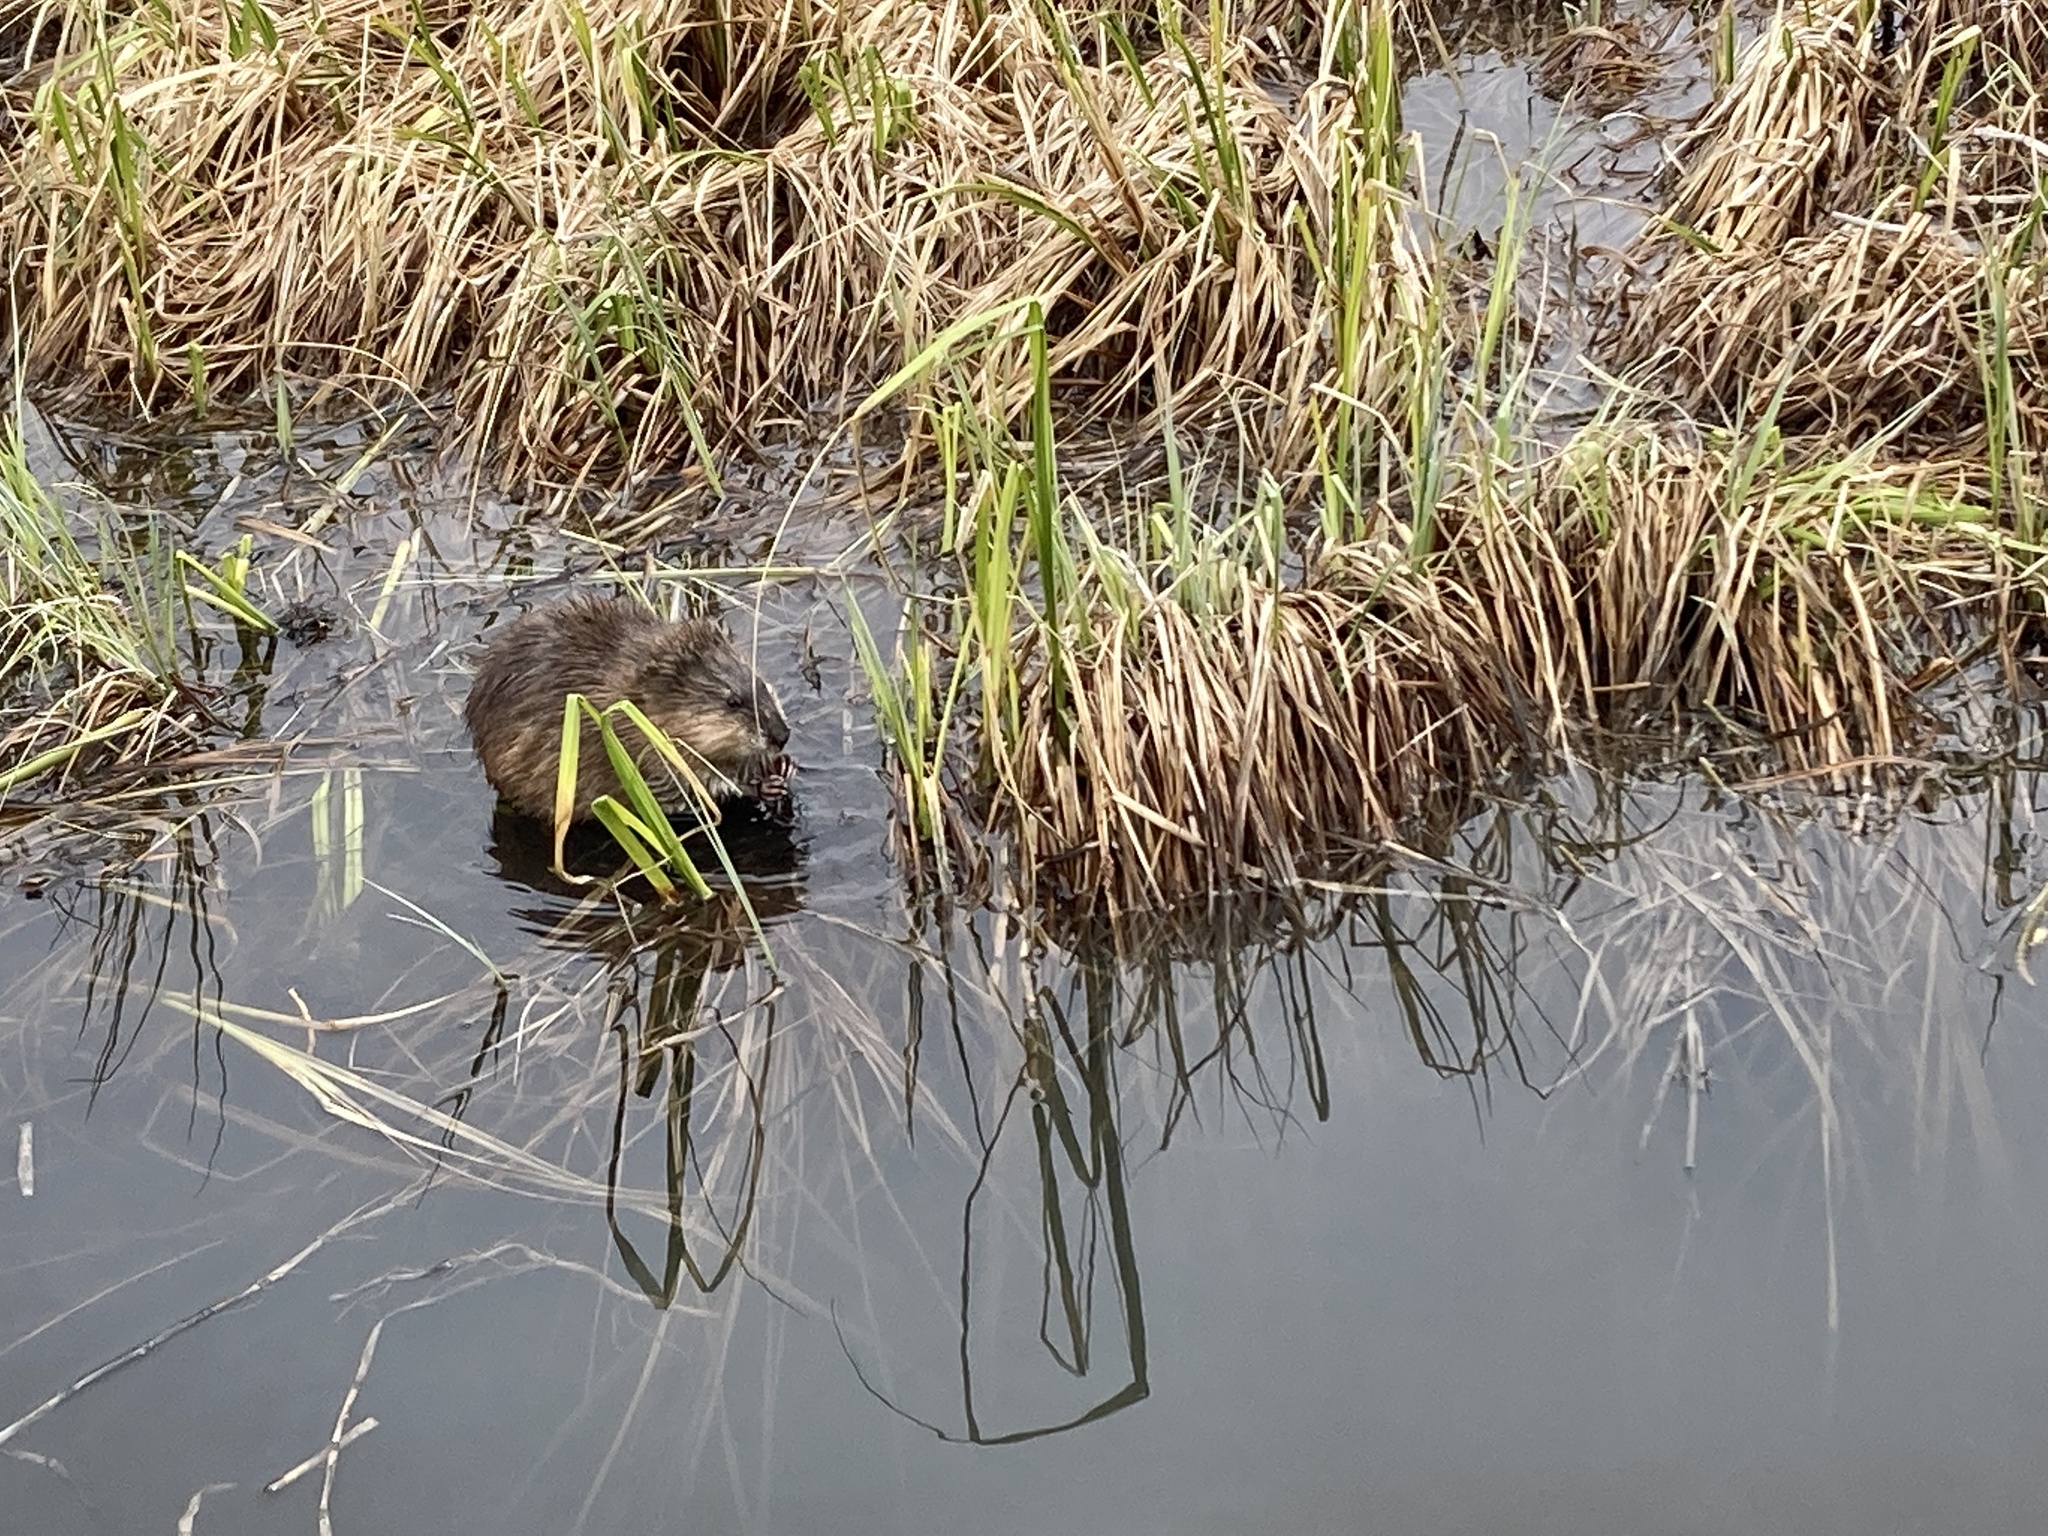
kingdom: Animalia
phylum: Chordata
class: Mammalia
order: Rodentia
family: Cricetidae
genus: Ondatra
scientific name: Ondatra zibethicus
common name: Muskrat
